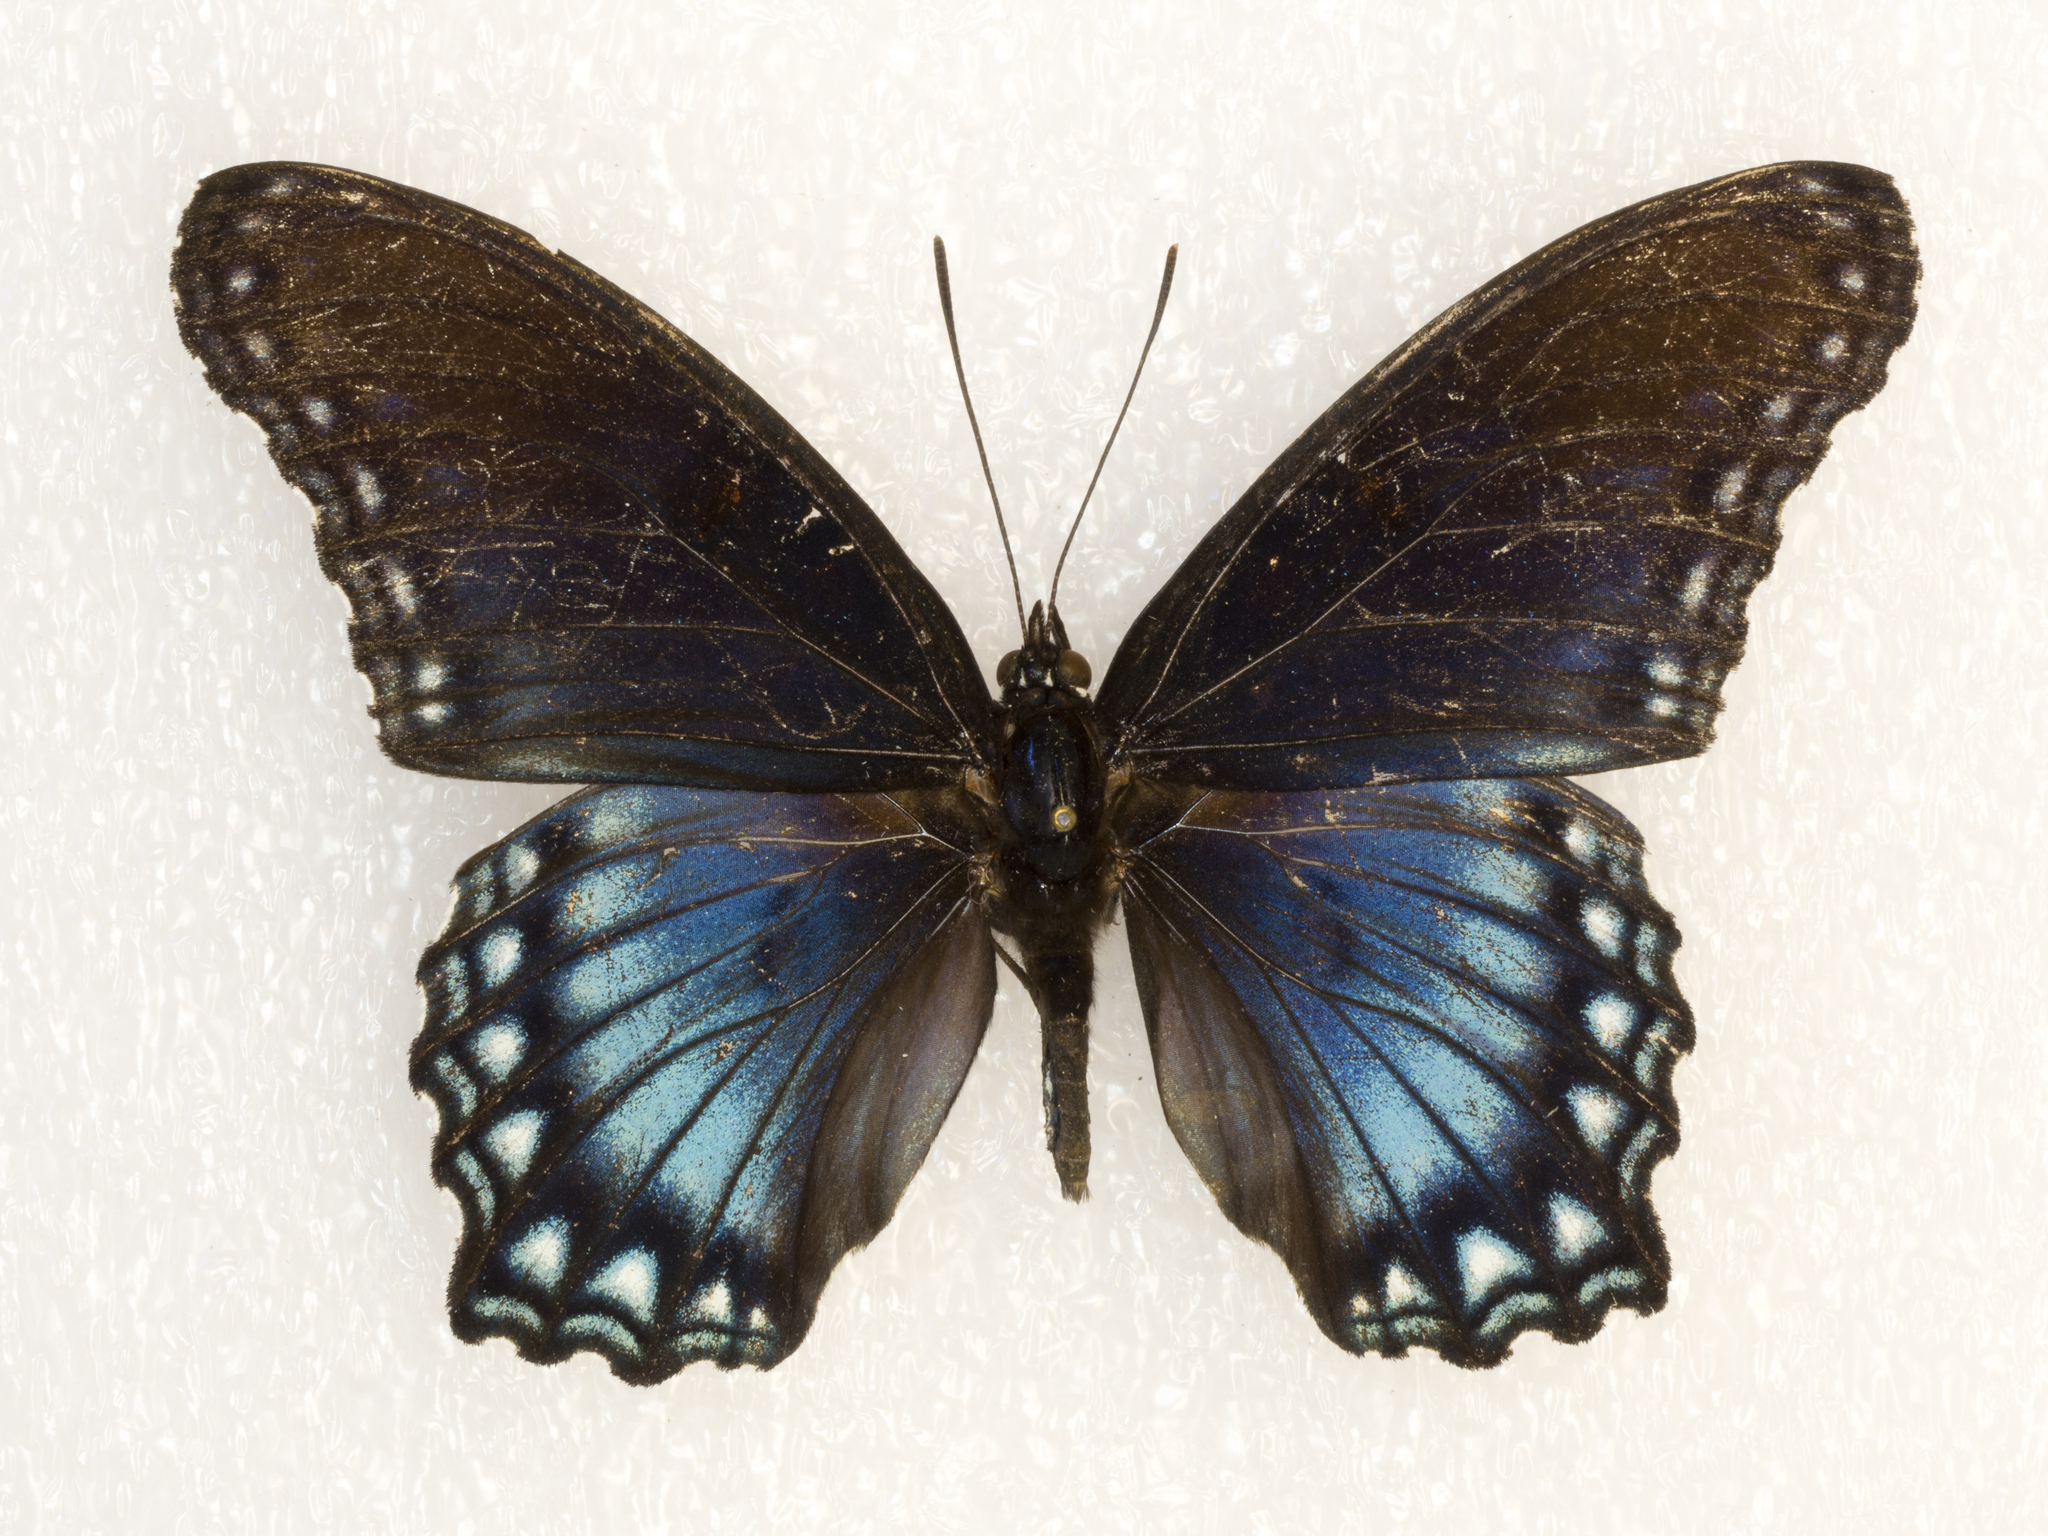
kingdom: Animalia
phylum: Arthropoda
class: Insecta
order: Lepidoptera
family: Nymphalidae
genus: Limenitis
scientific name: Limenitis arthemis
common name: Red-spotted admiral
